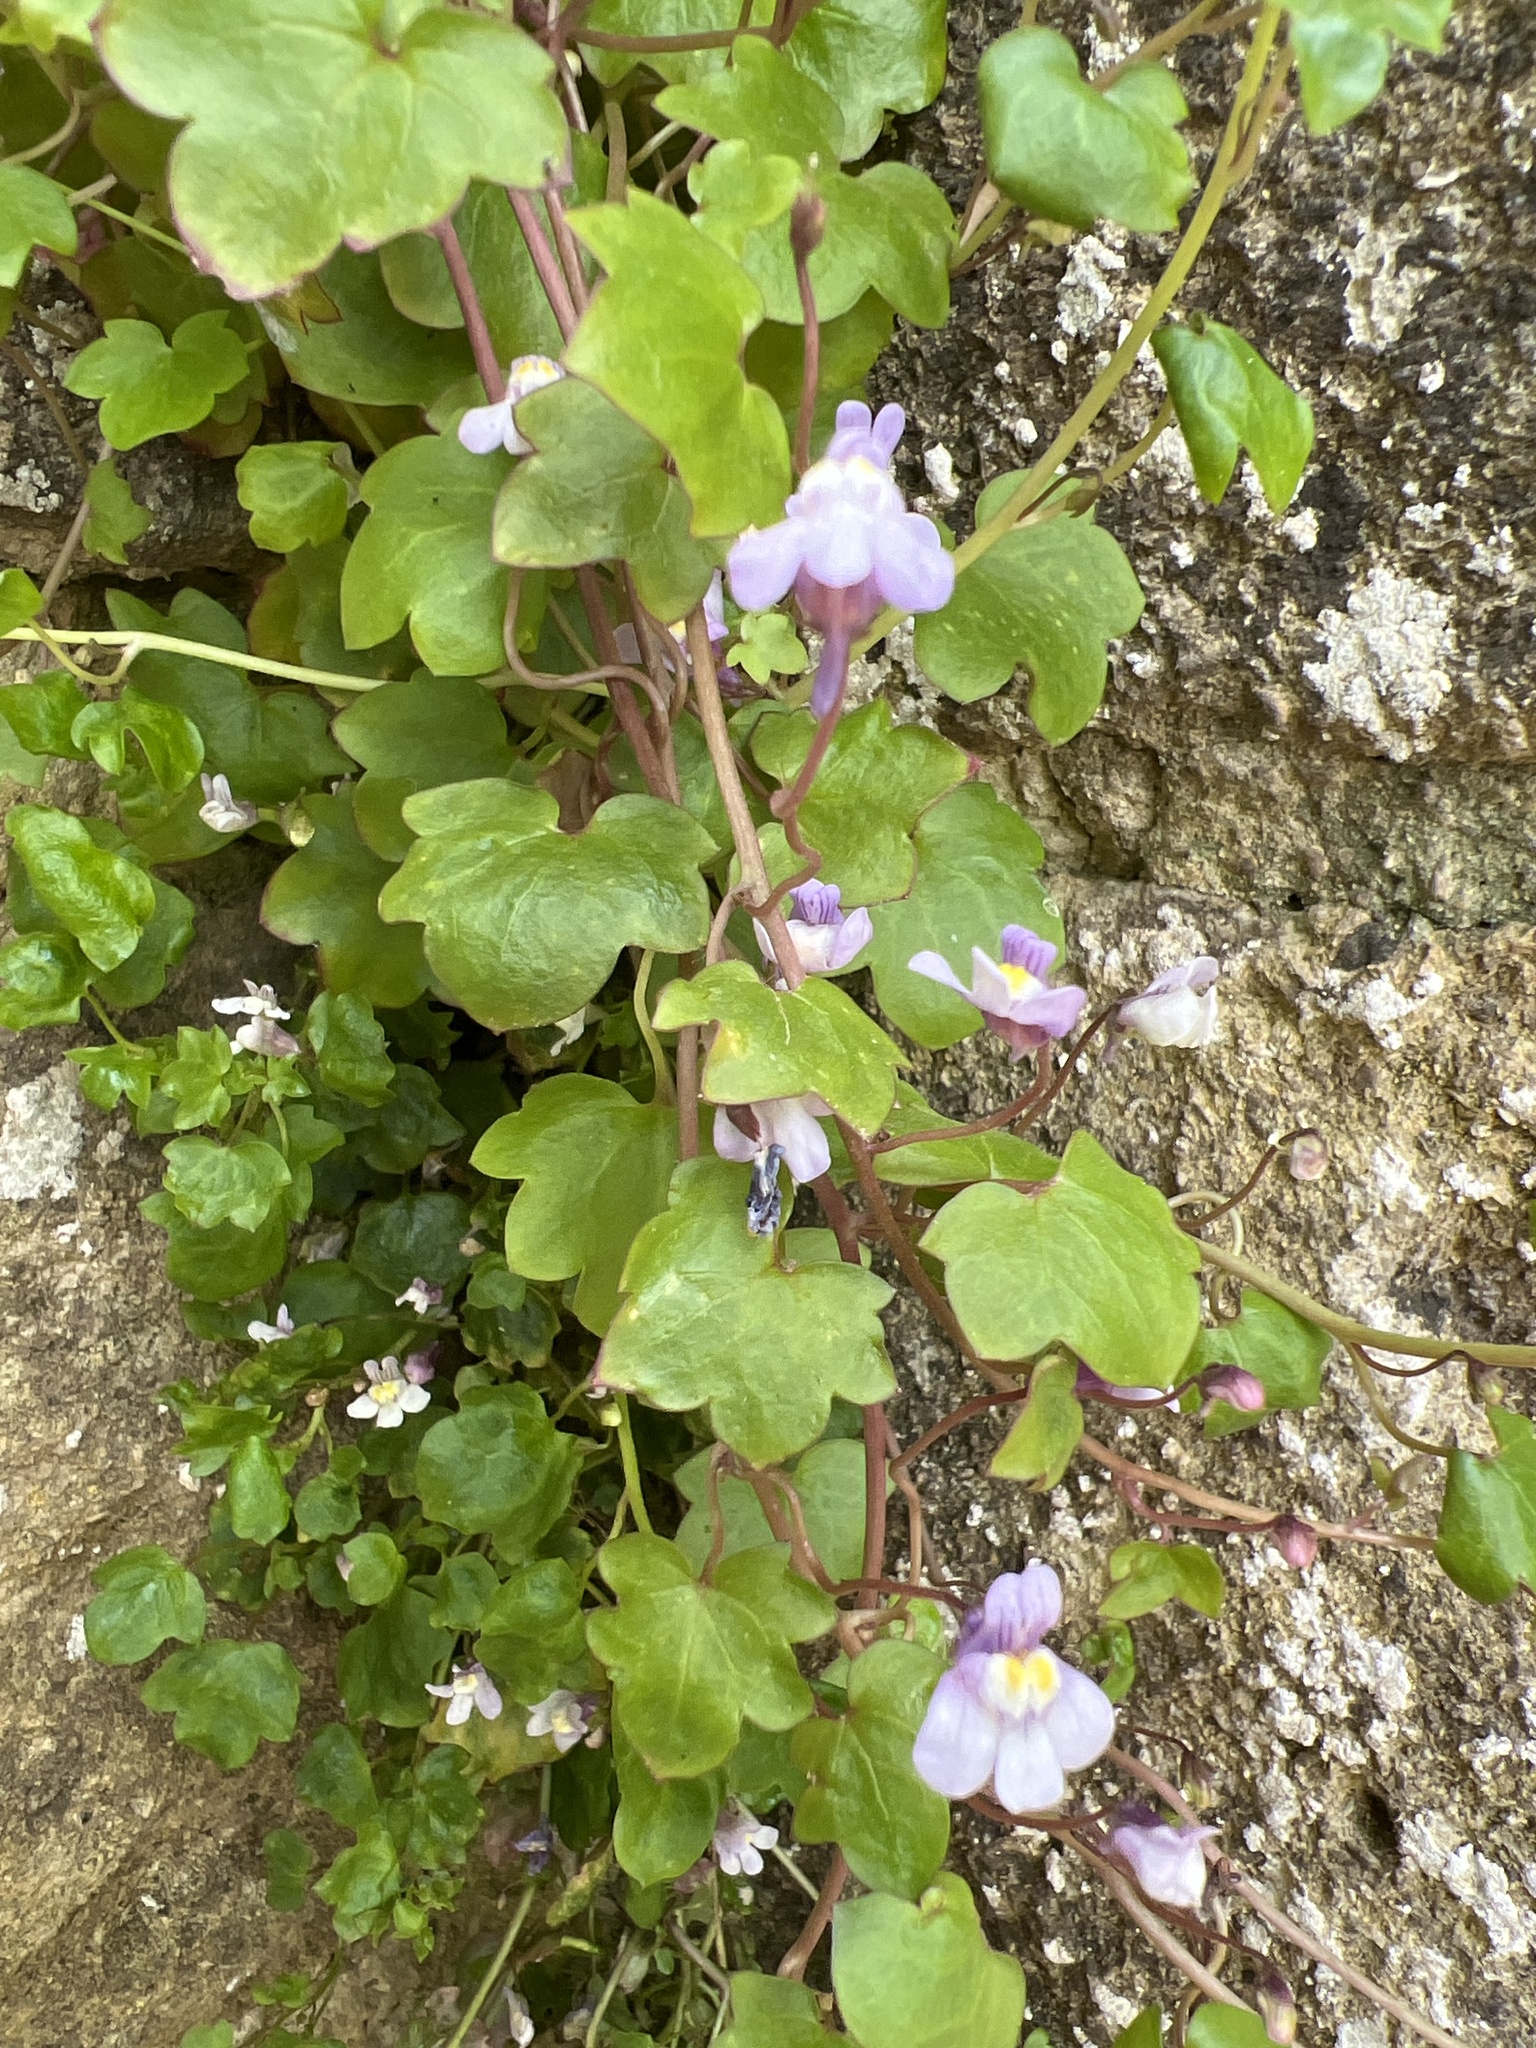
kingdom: Plantae
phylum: Tracheophyta
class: Magnoliopsida
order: Lamiales
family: Plantaginaceae
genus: Cymbalaria
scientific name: Cymbalaria muralis
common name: Ivy-leaved toadflax
